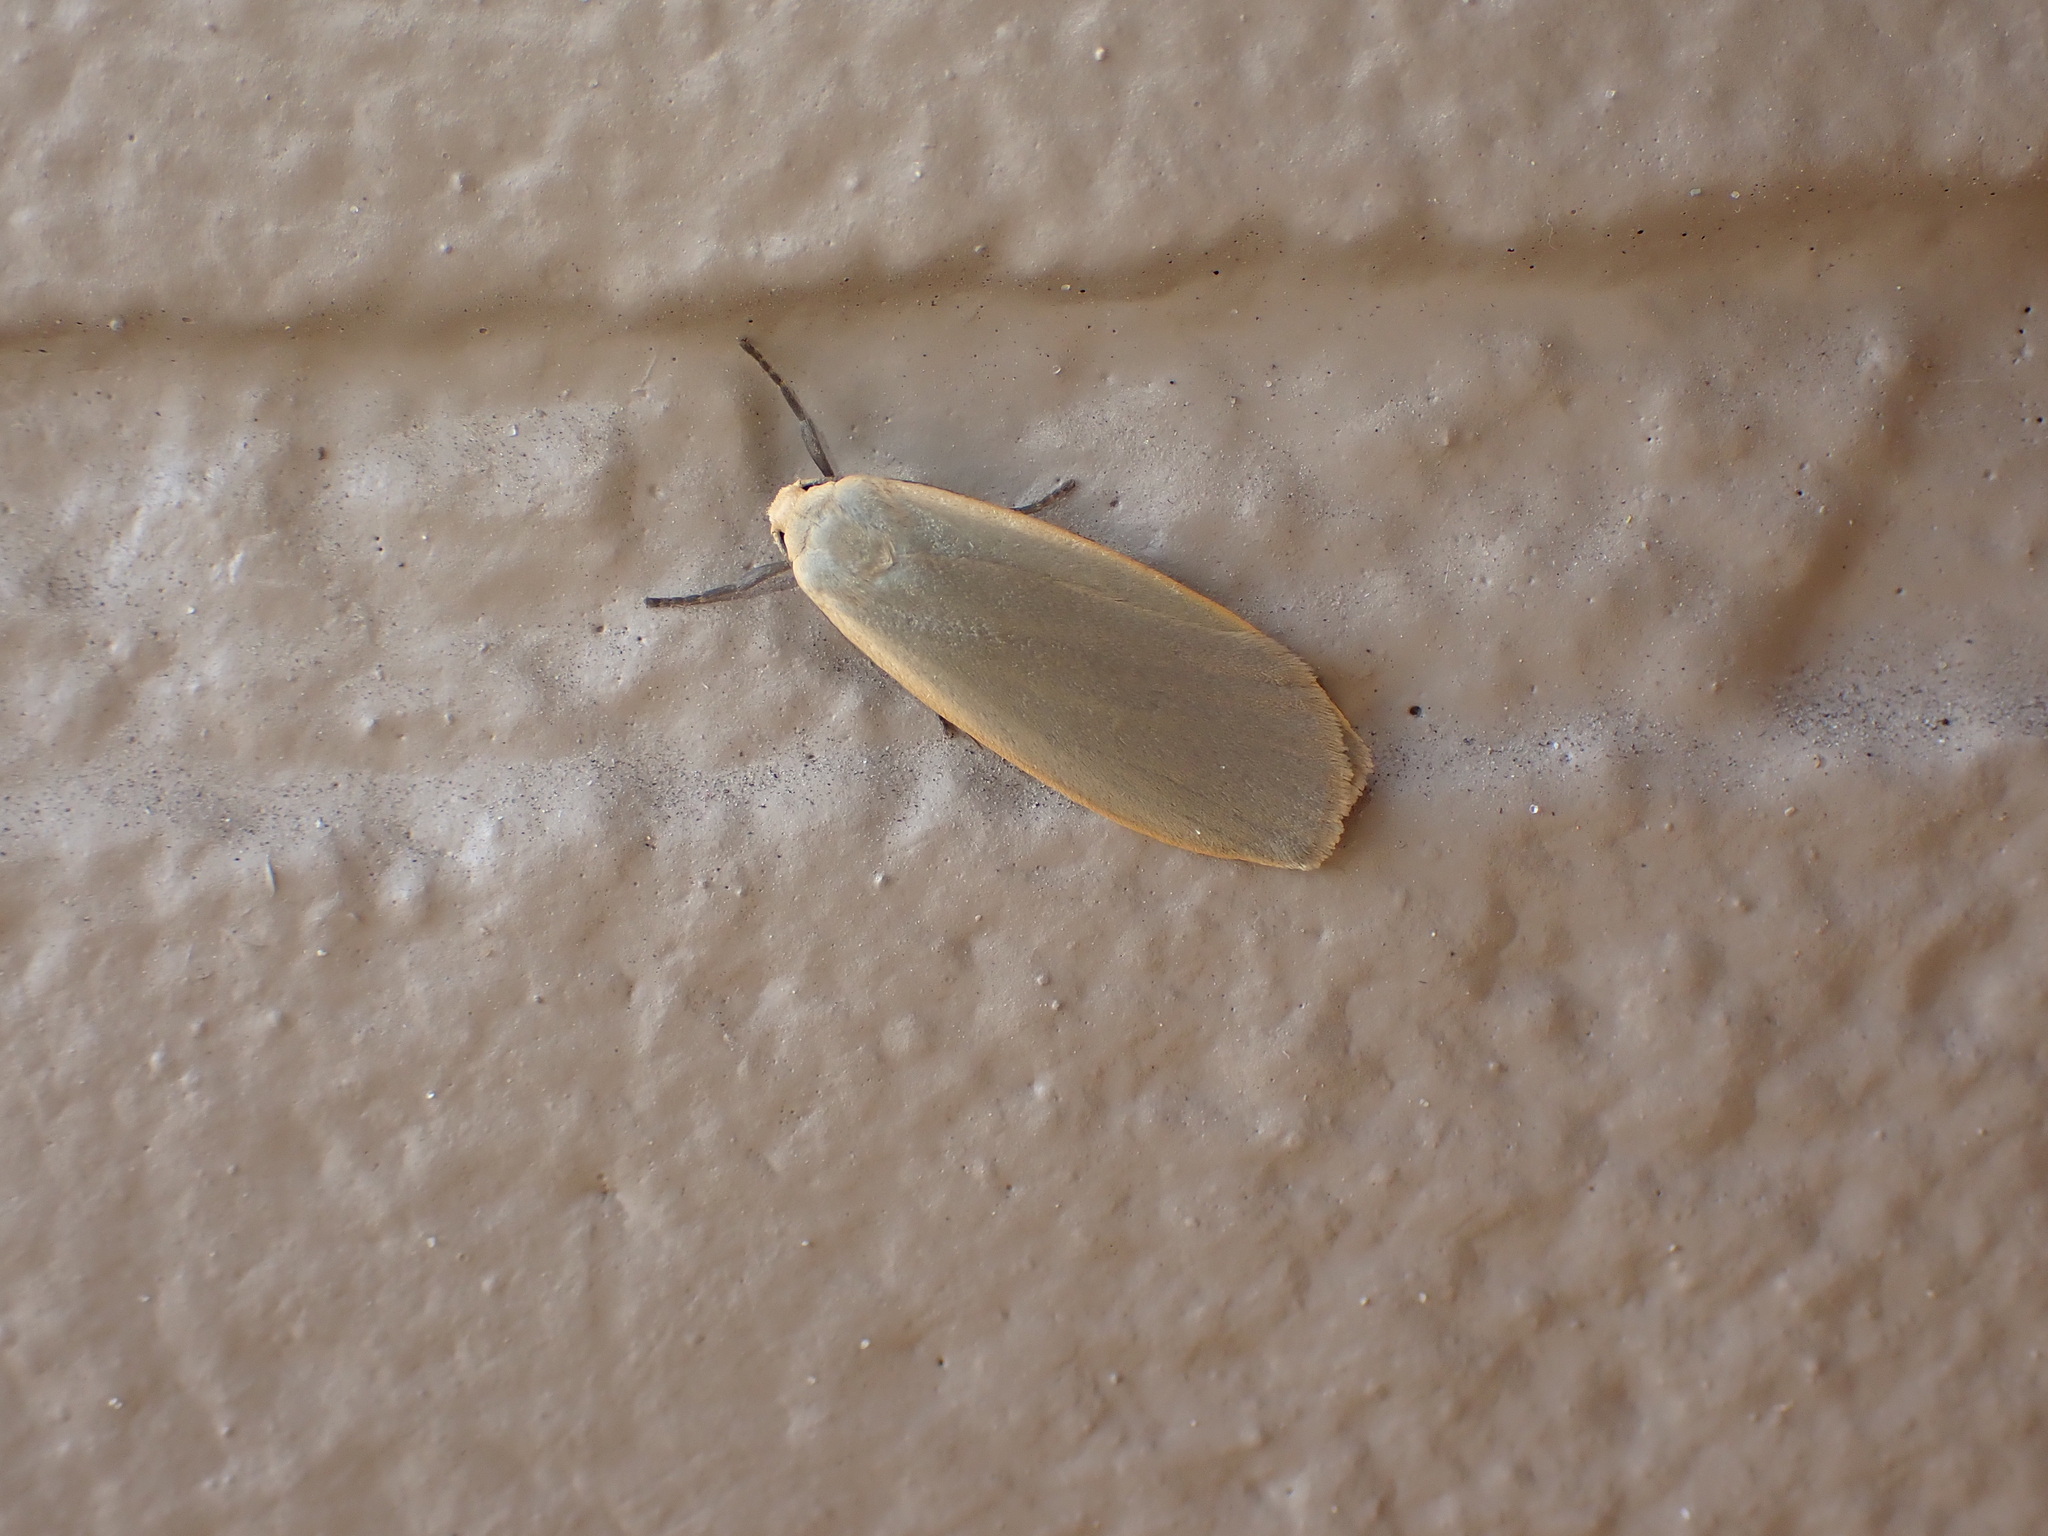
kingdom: Animalia
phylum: Arthropoda
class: Insecta
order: Lepidoptera
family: Erebidae
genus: Collita
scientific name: Collita griseola
